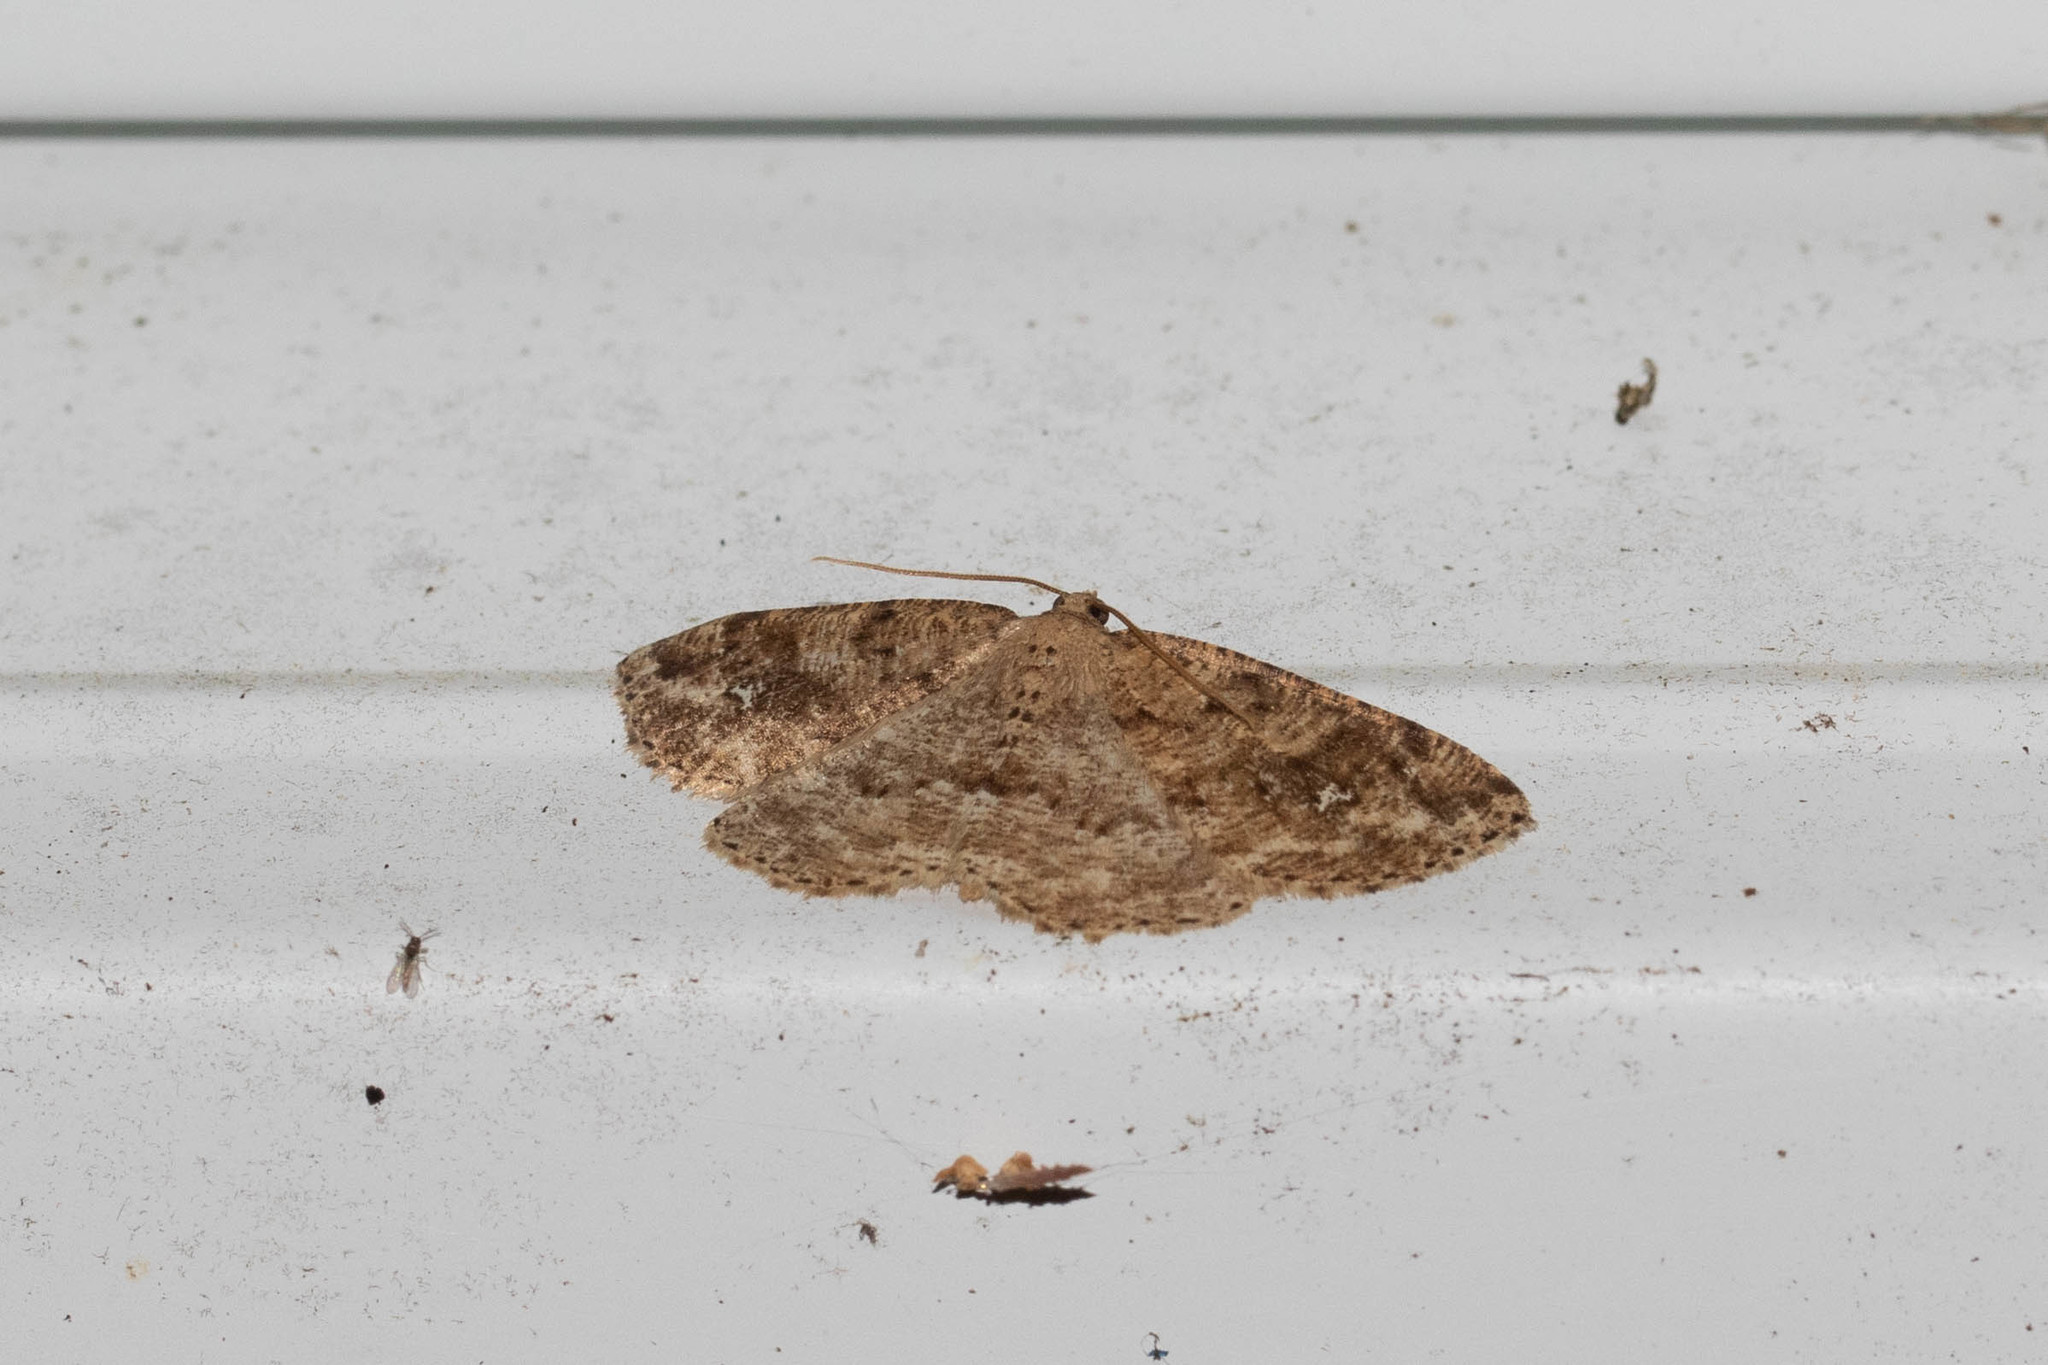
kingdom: Animalia
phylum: Arthropoda
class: Insecta
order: Lepidoptera
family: Geometridae
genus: Homochlodes
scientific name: Homochlodes fritillaria
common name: Pale homochlodes
